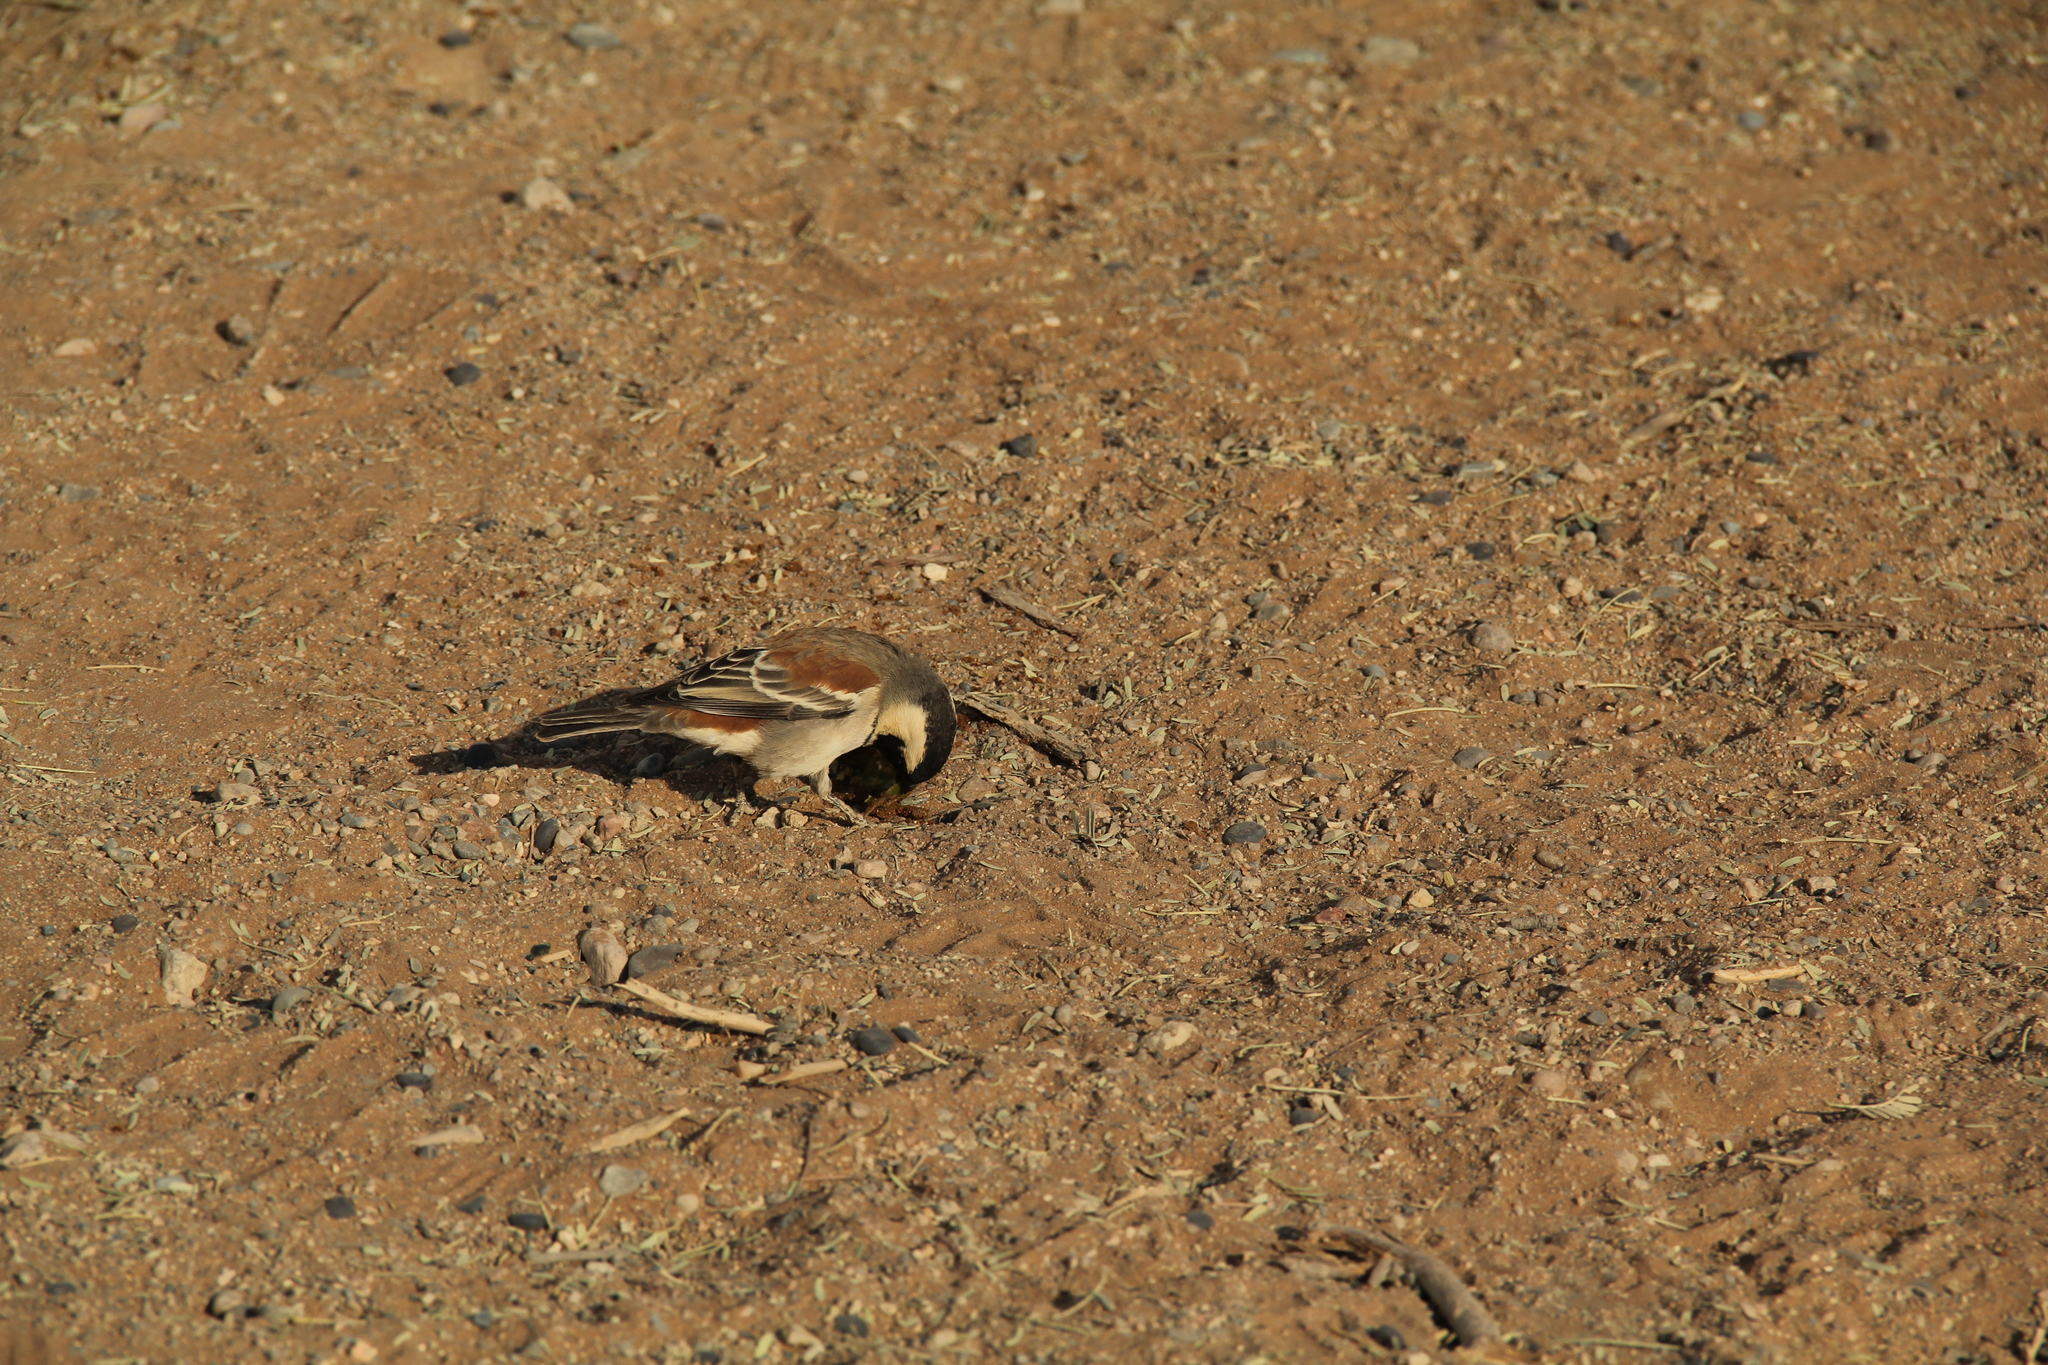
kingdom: Animalia
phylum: Chordata
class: Aves
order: Passeriformes
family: Passeridae
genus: Passer
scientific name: Passer melanurus
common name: Cape sparrow
